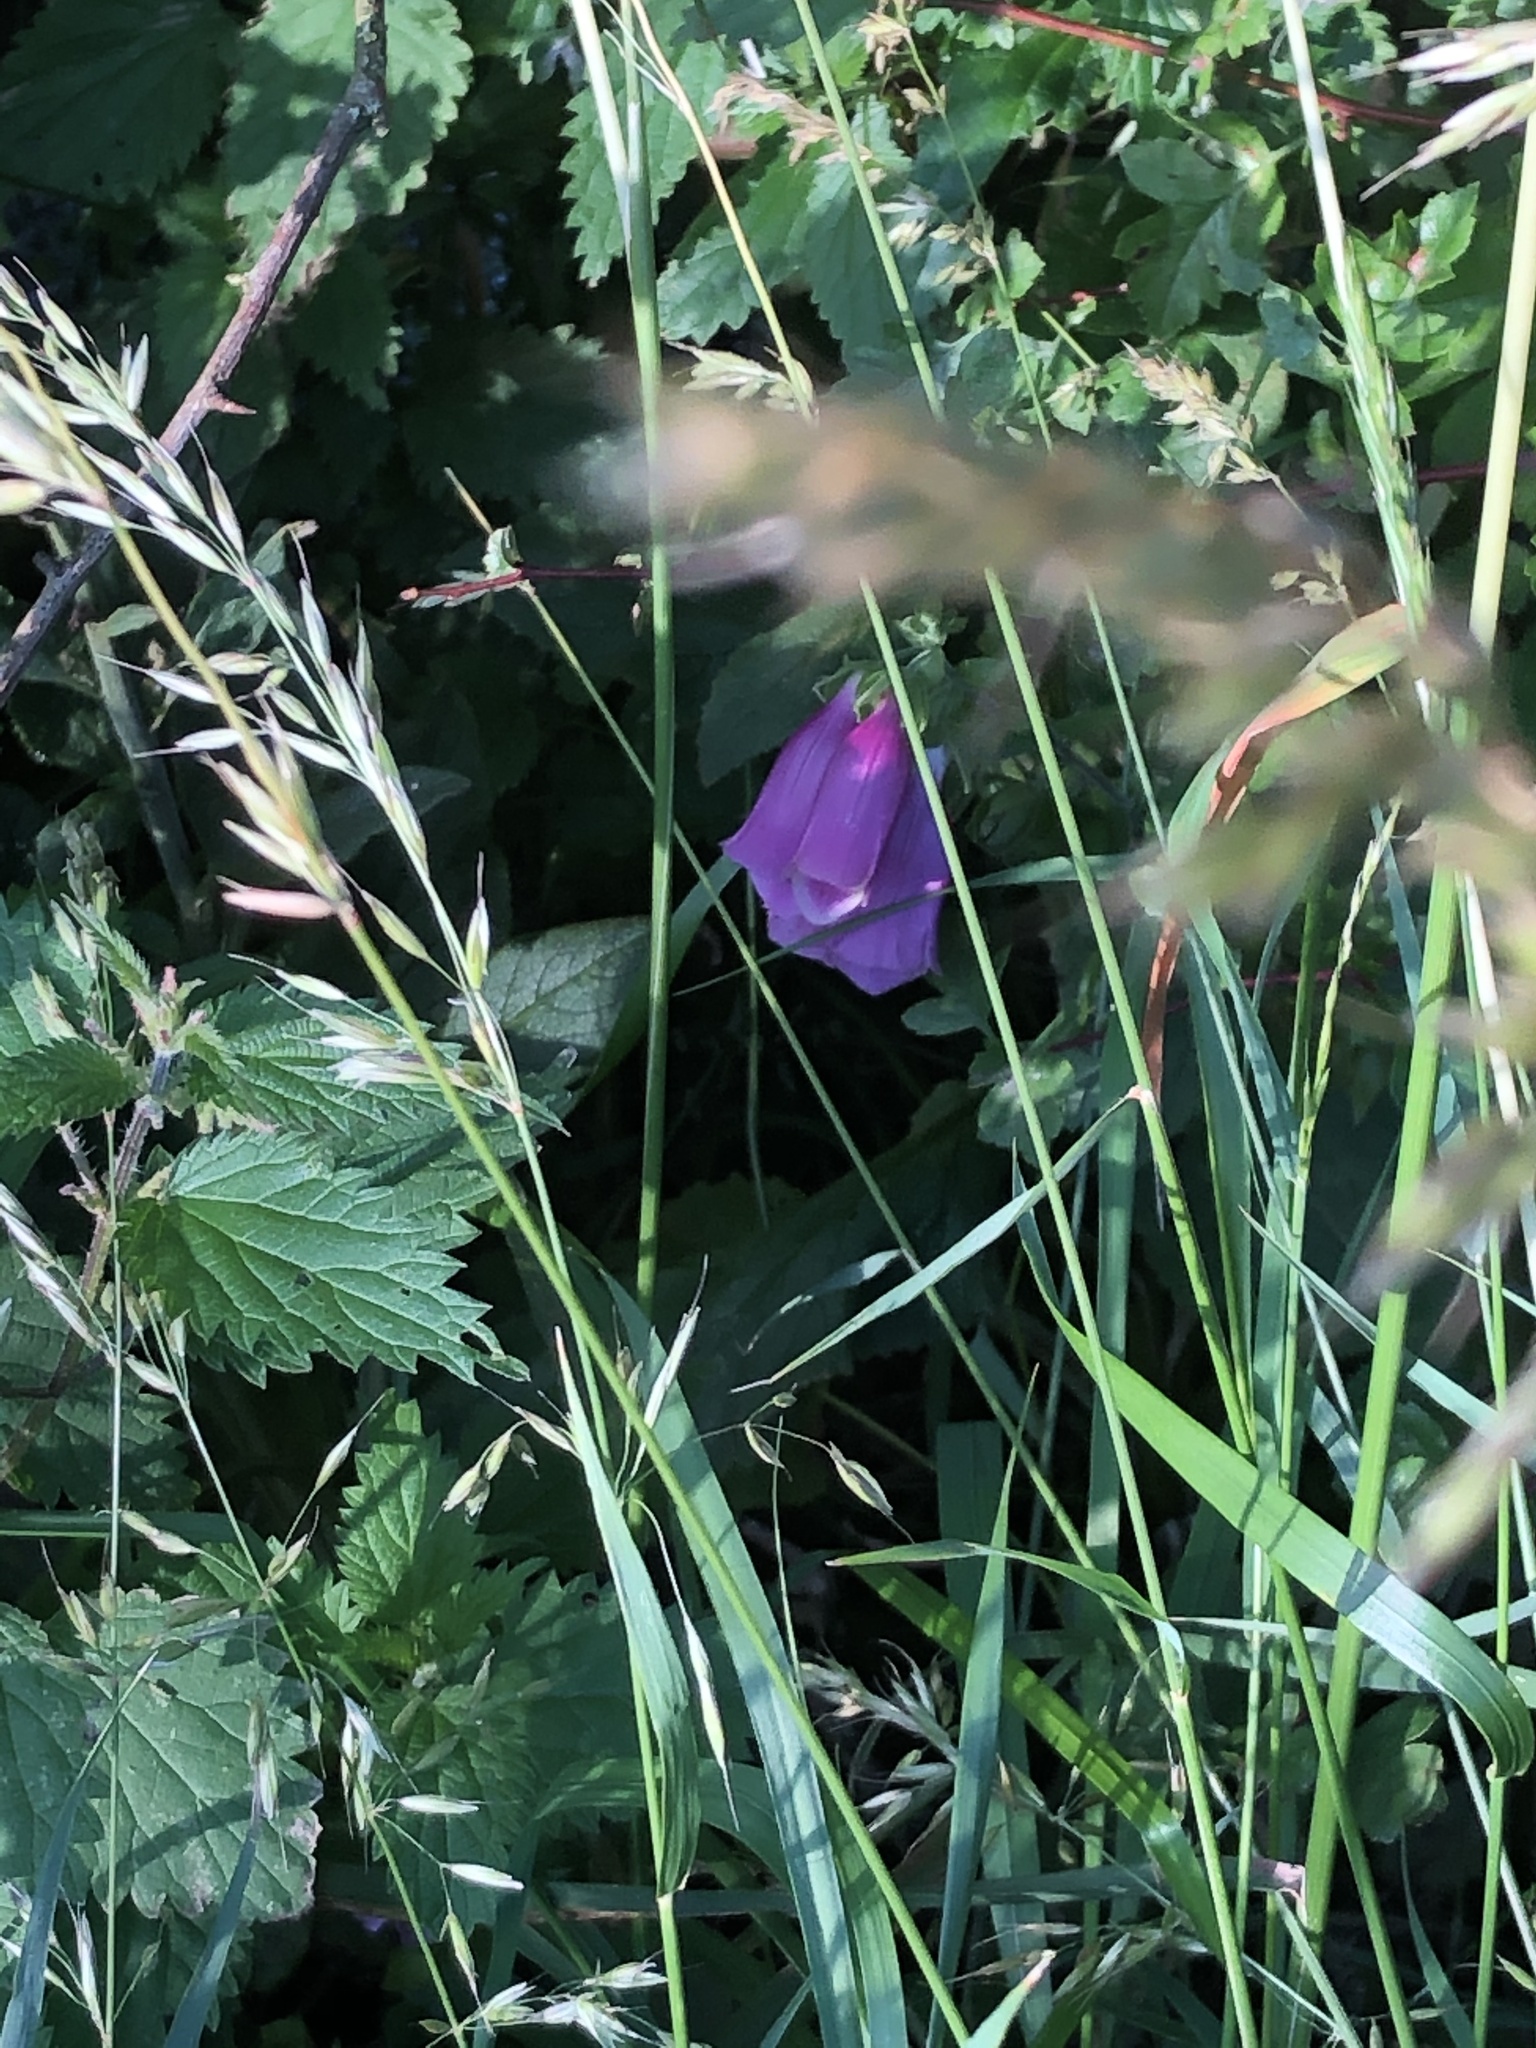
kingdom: Plantae
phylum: Tracheophyta
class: Magnoliopsida
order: Lamiales
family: Plantaginaceae
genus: Digitalis
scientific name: Digitalis purpurea
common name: Foxglove
